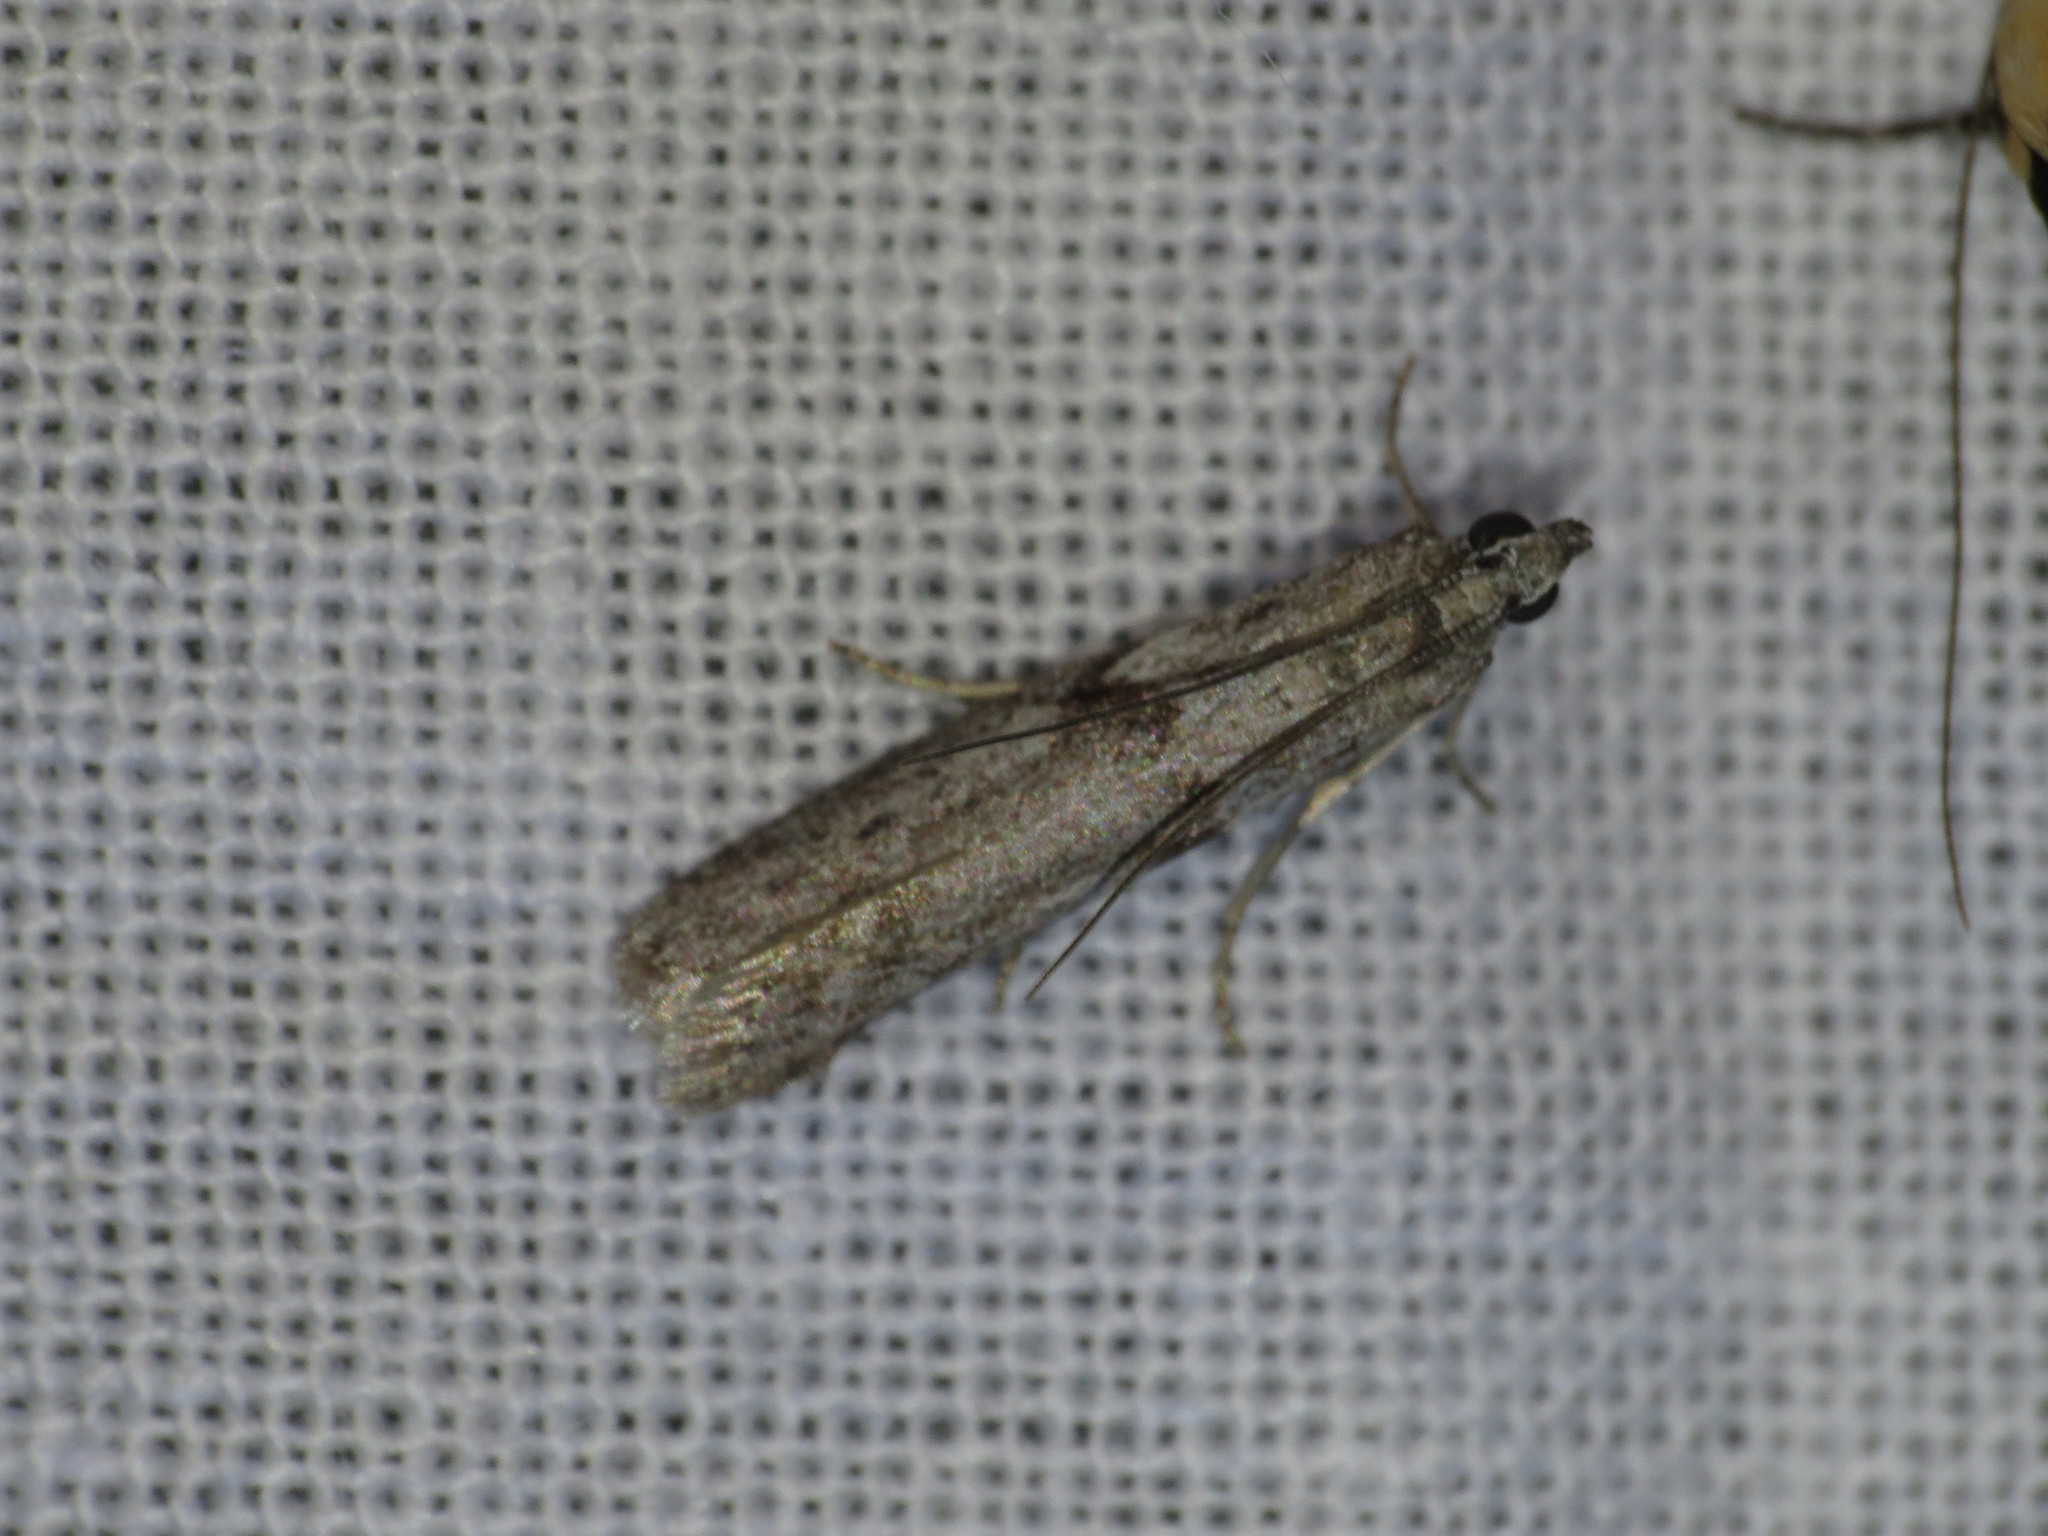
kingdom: Animalia
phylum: Arthropoda
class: Insecta
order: Lepidoptera
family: Pyralidae
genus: Homoeosoma
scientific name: Homoeosoma vagella
